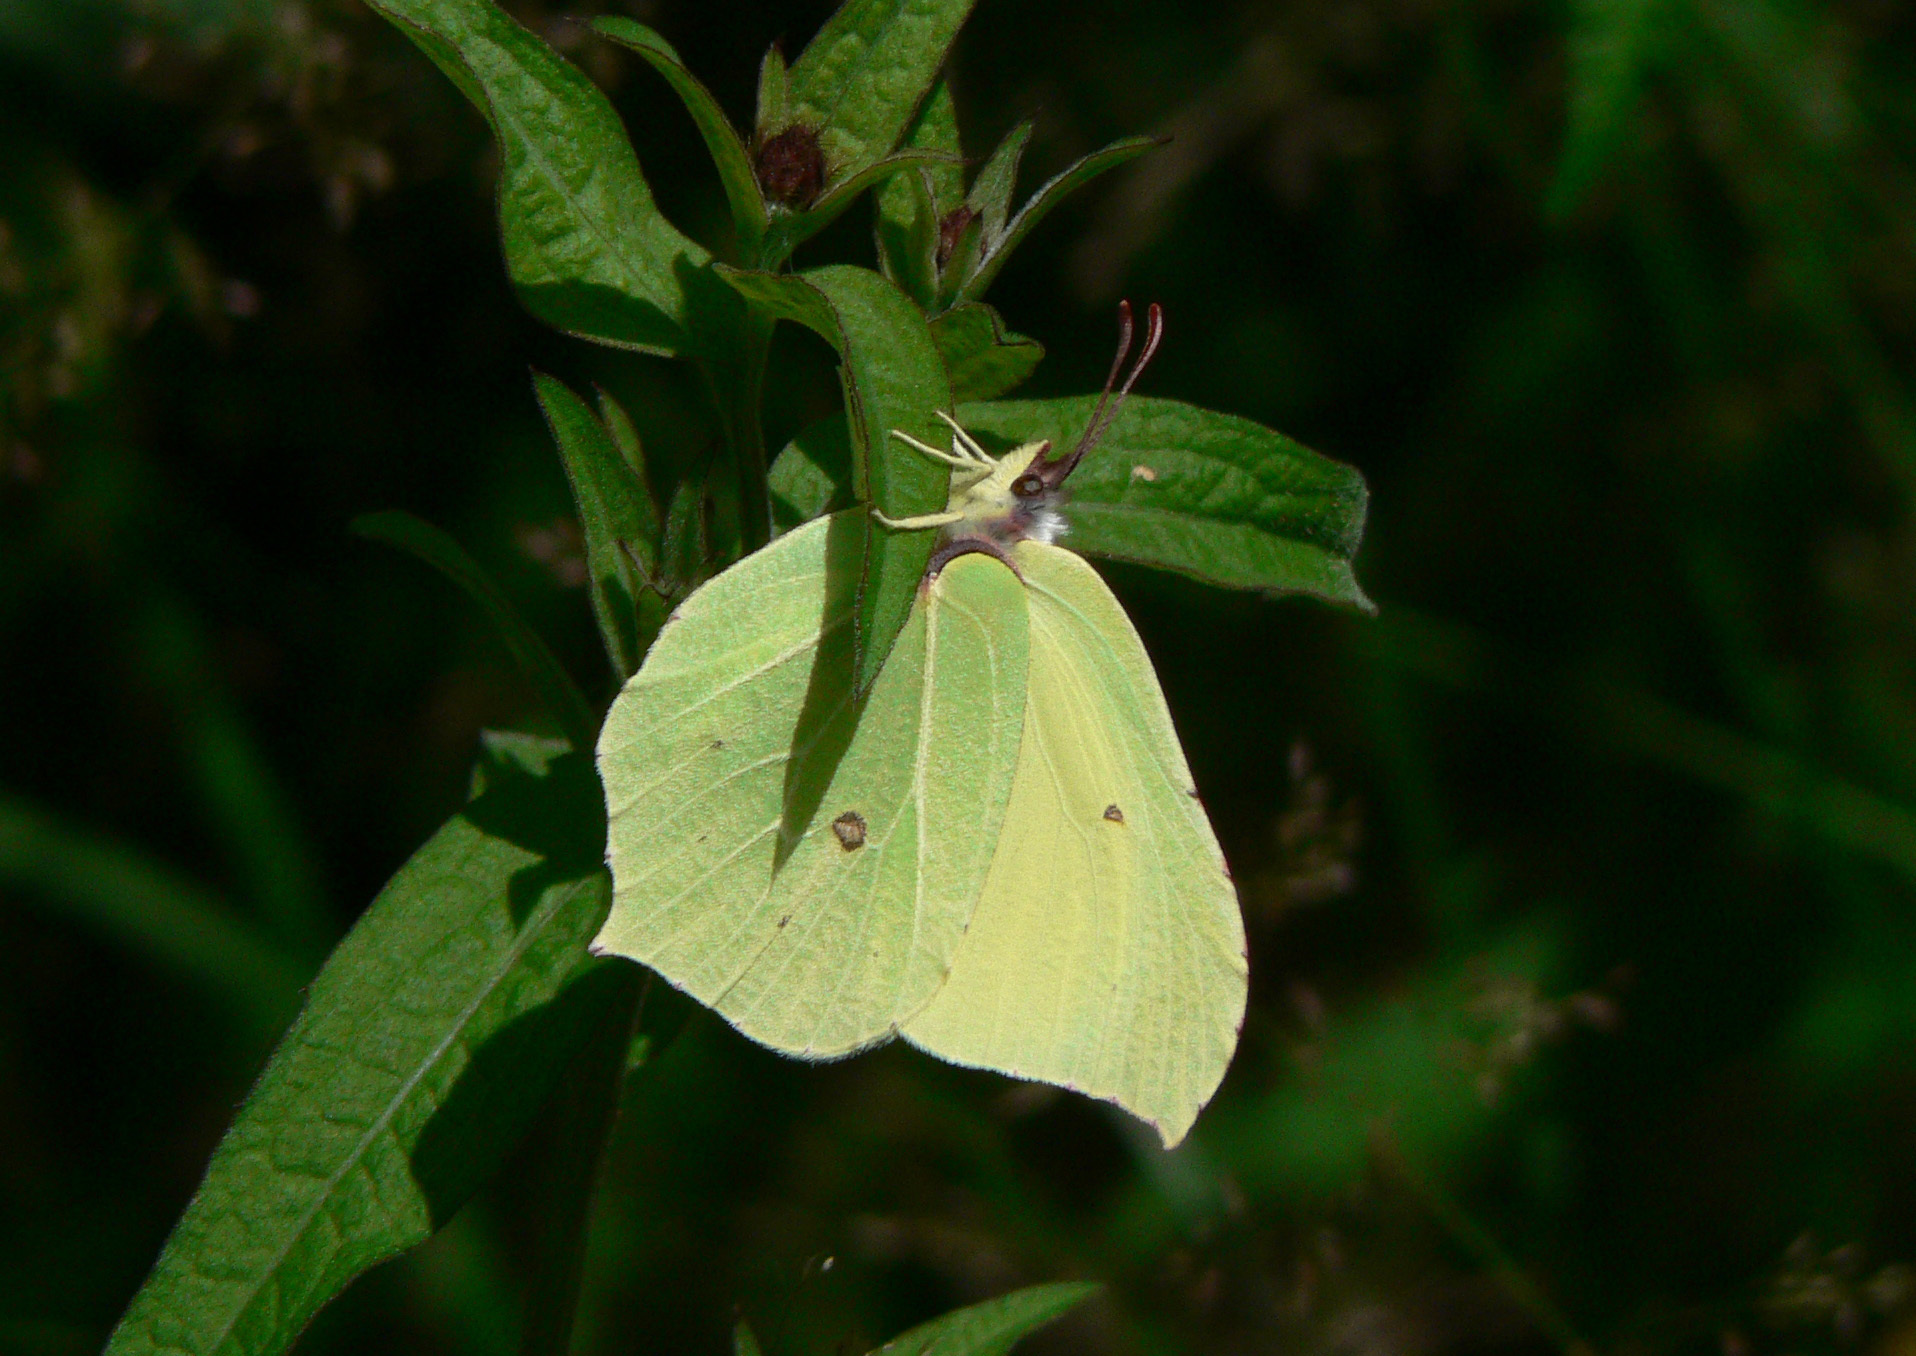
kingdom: Animalia
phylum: Arthropoda
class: Insecta
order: Lepidoptera
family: Pieridae
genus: Gonepteryx
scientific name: Gonepteryx rhamni
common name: Brimstone
